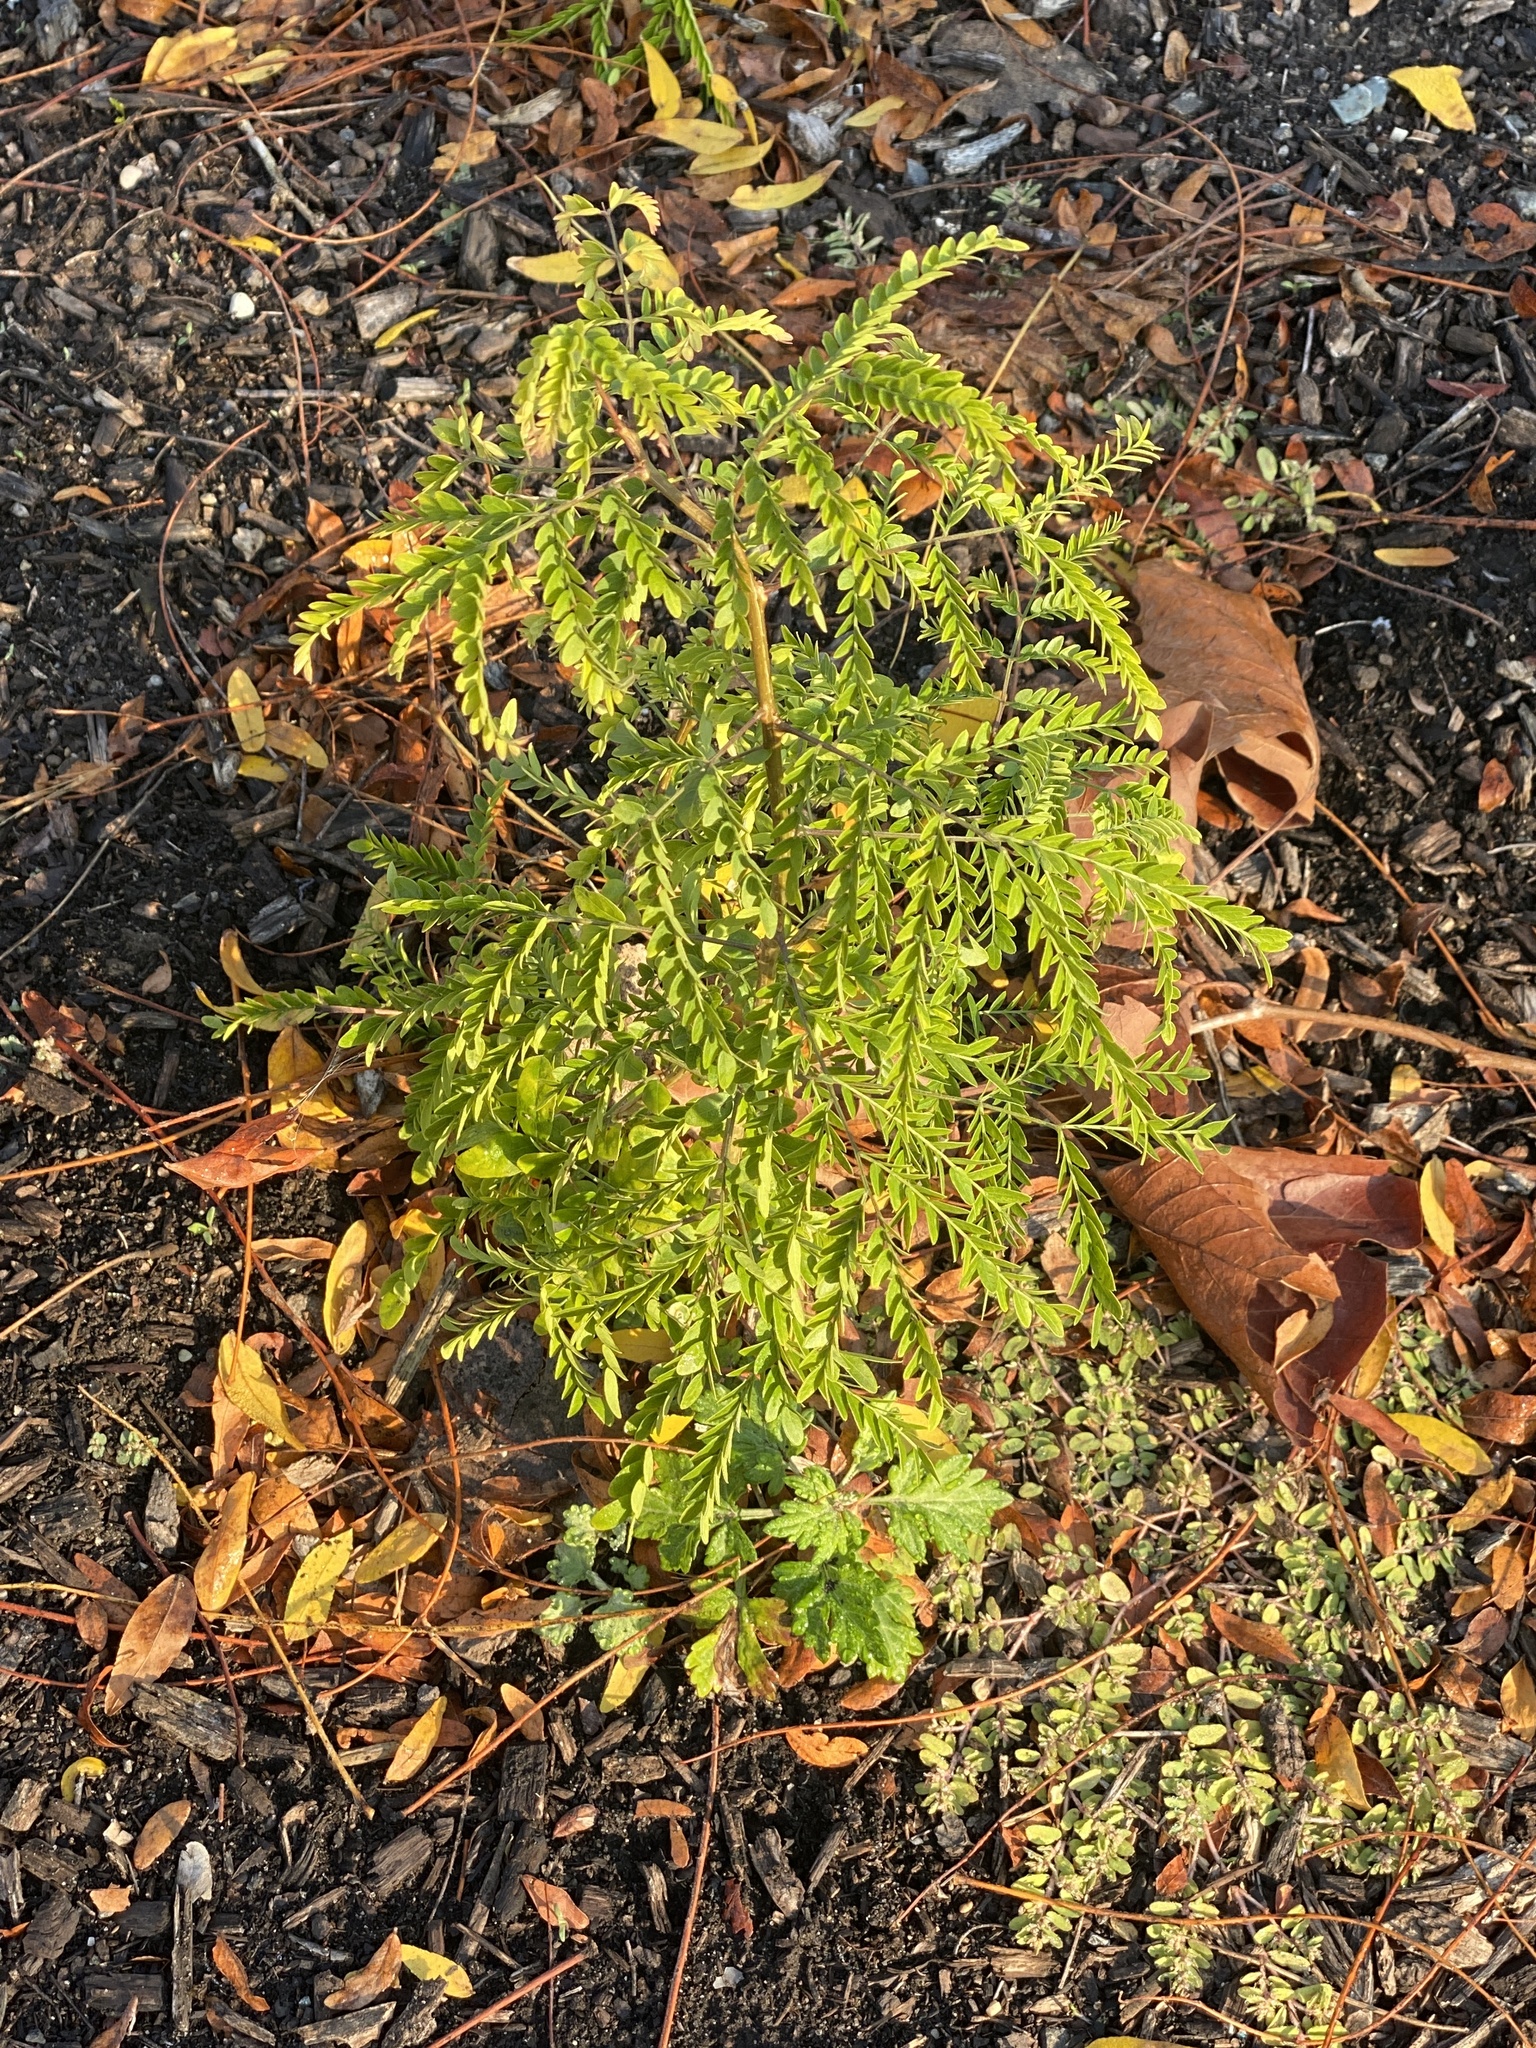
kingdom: Plantae
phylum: Tracheophyta
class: Magnoliopsida
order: Fabales
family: Fabaceae
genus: Gleditsia
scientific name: Gleditsia triacanthos
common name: Common honeylocust
